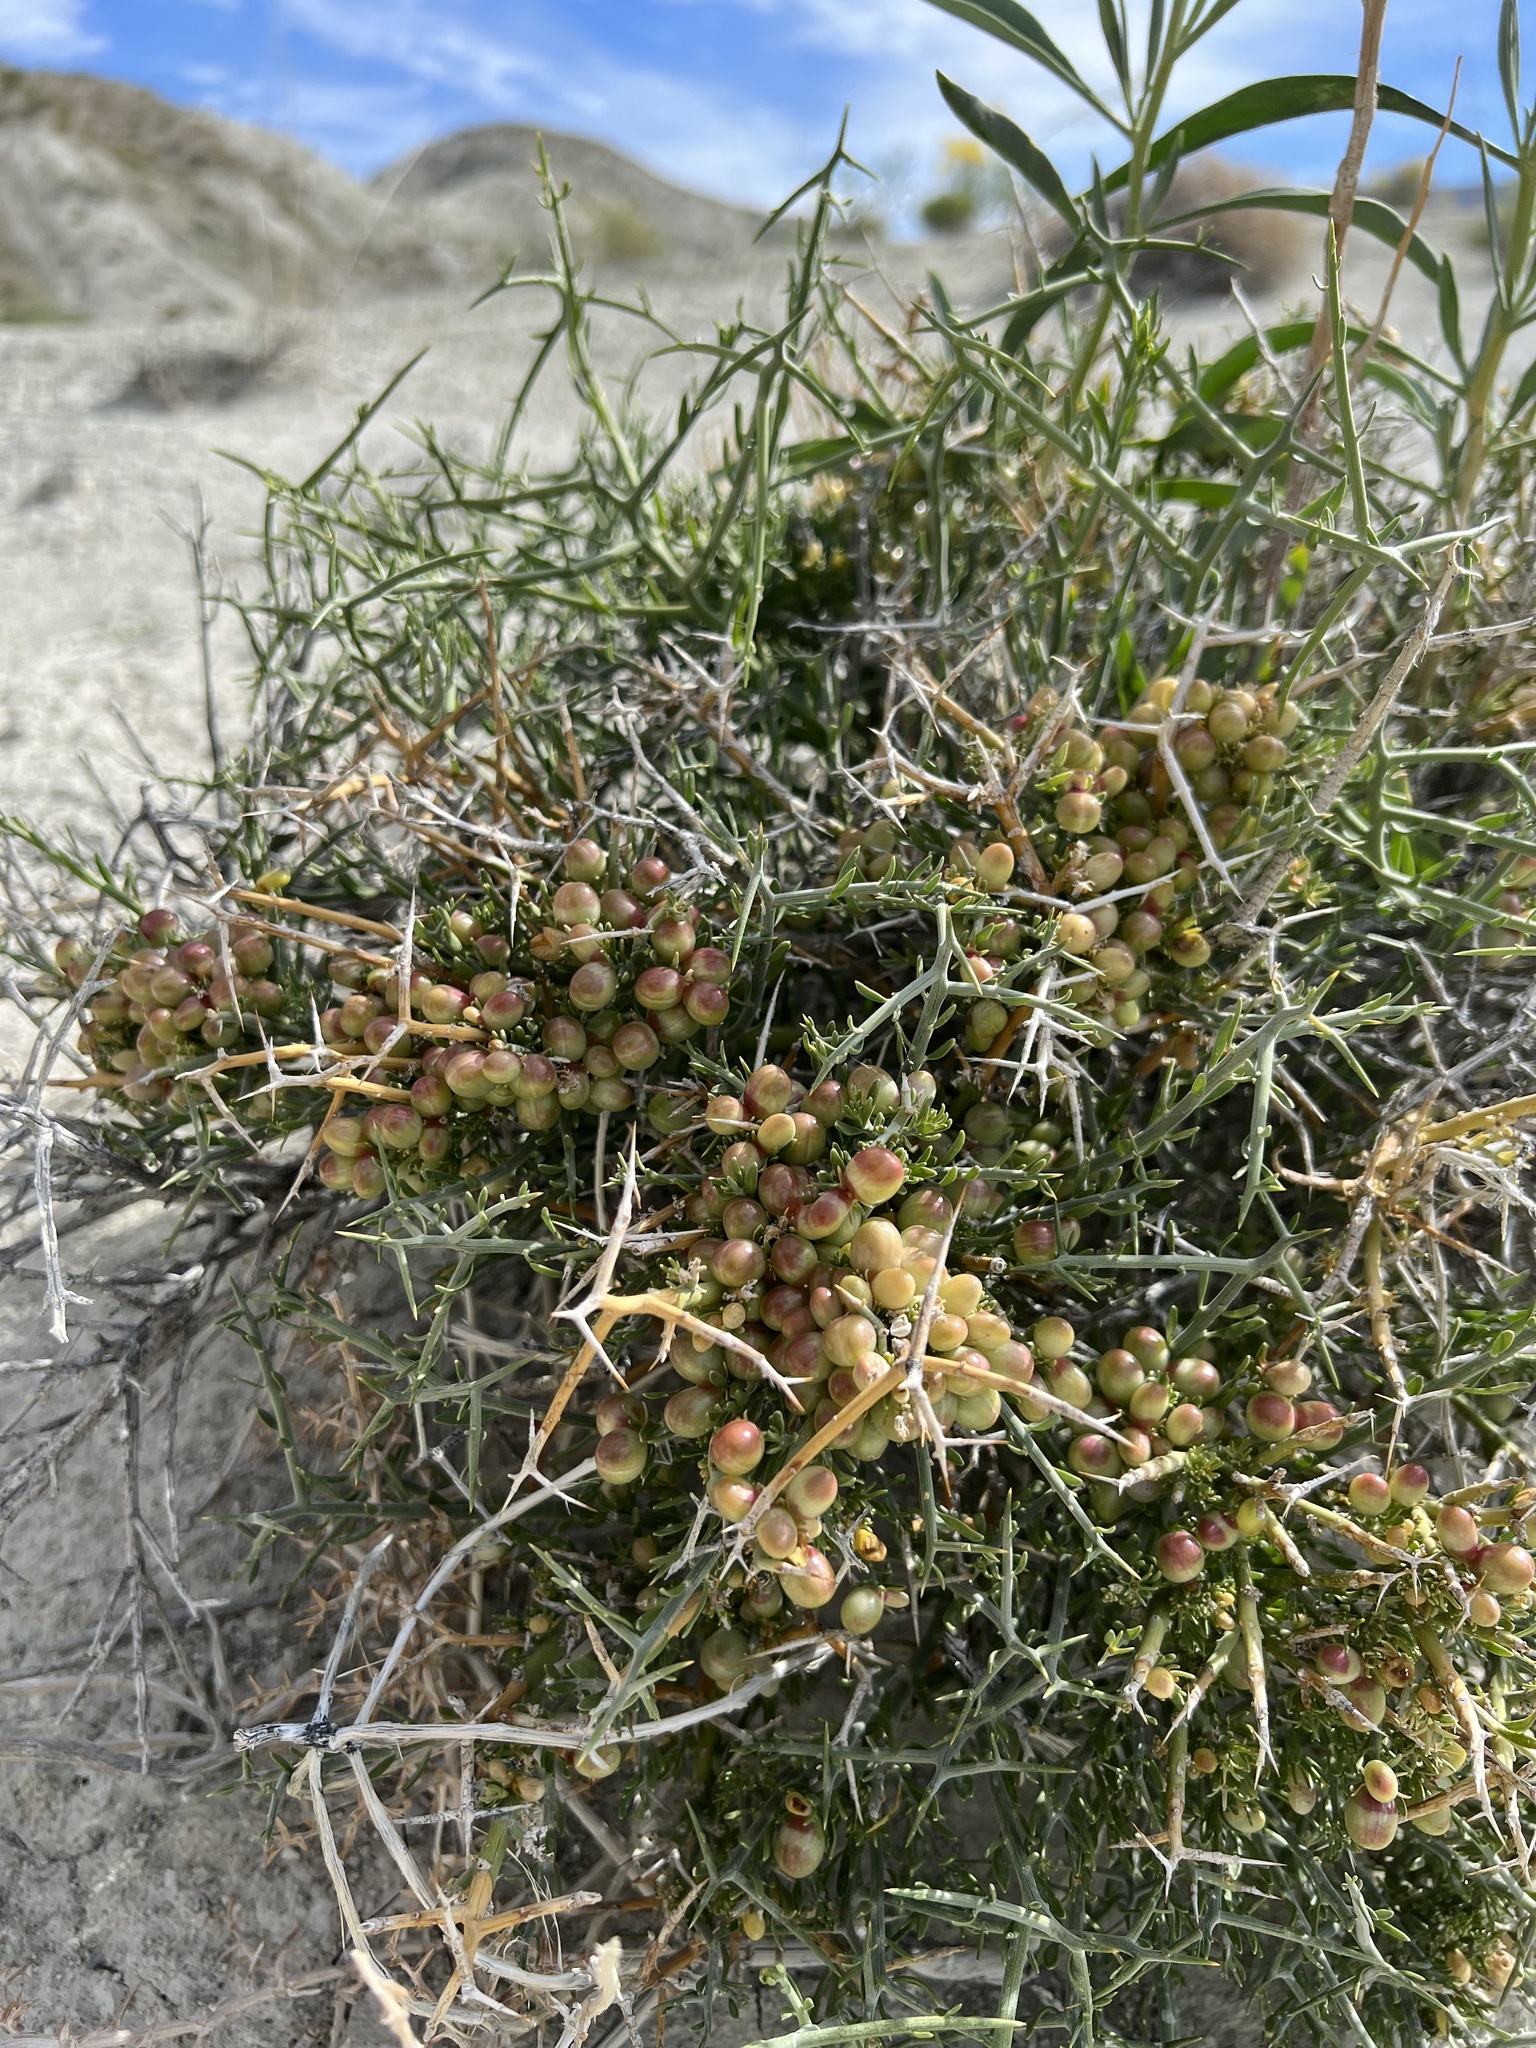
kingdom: Plantae
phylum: Tracheophyta
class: Magnoliopsida
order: Lamiales
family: Oleaceae
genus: Menodora
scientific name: Menodora spinescens
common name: Spiny menodora
